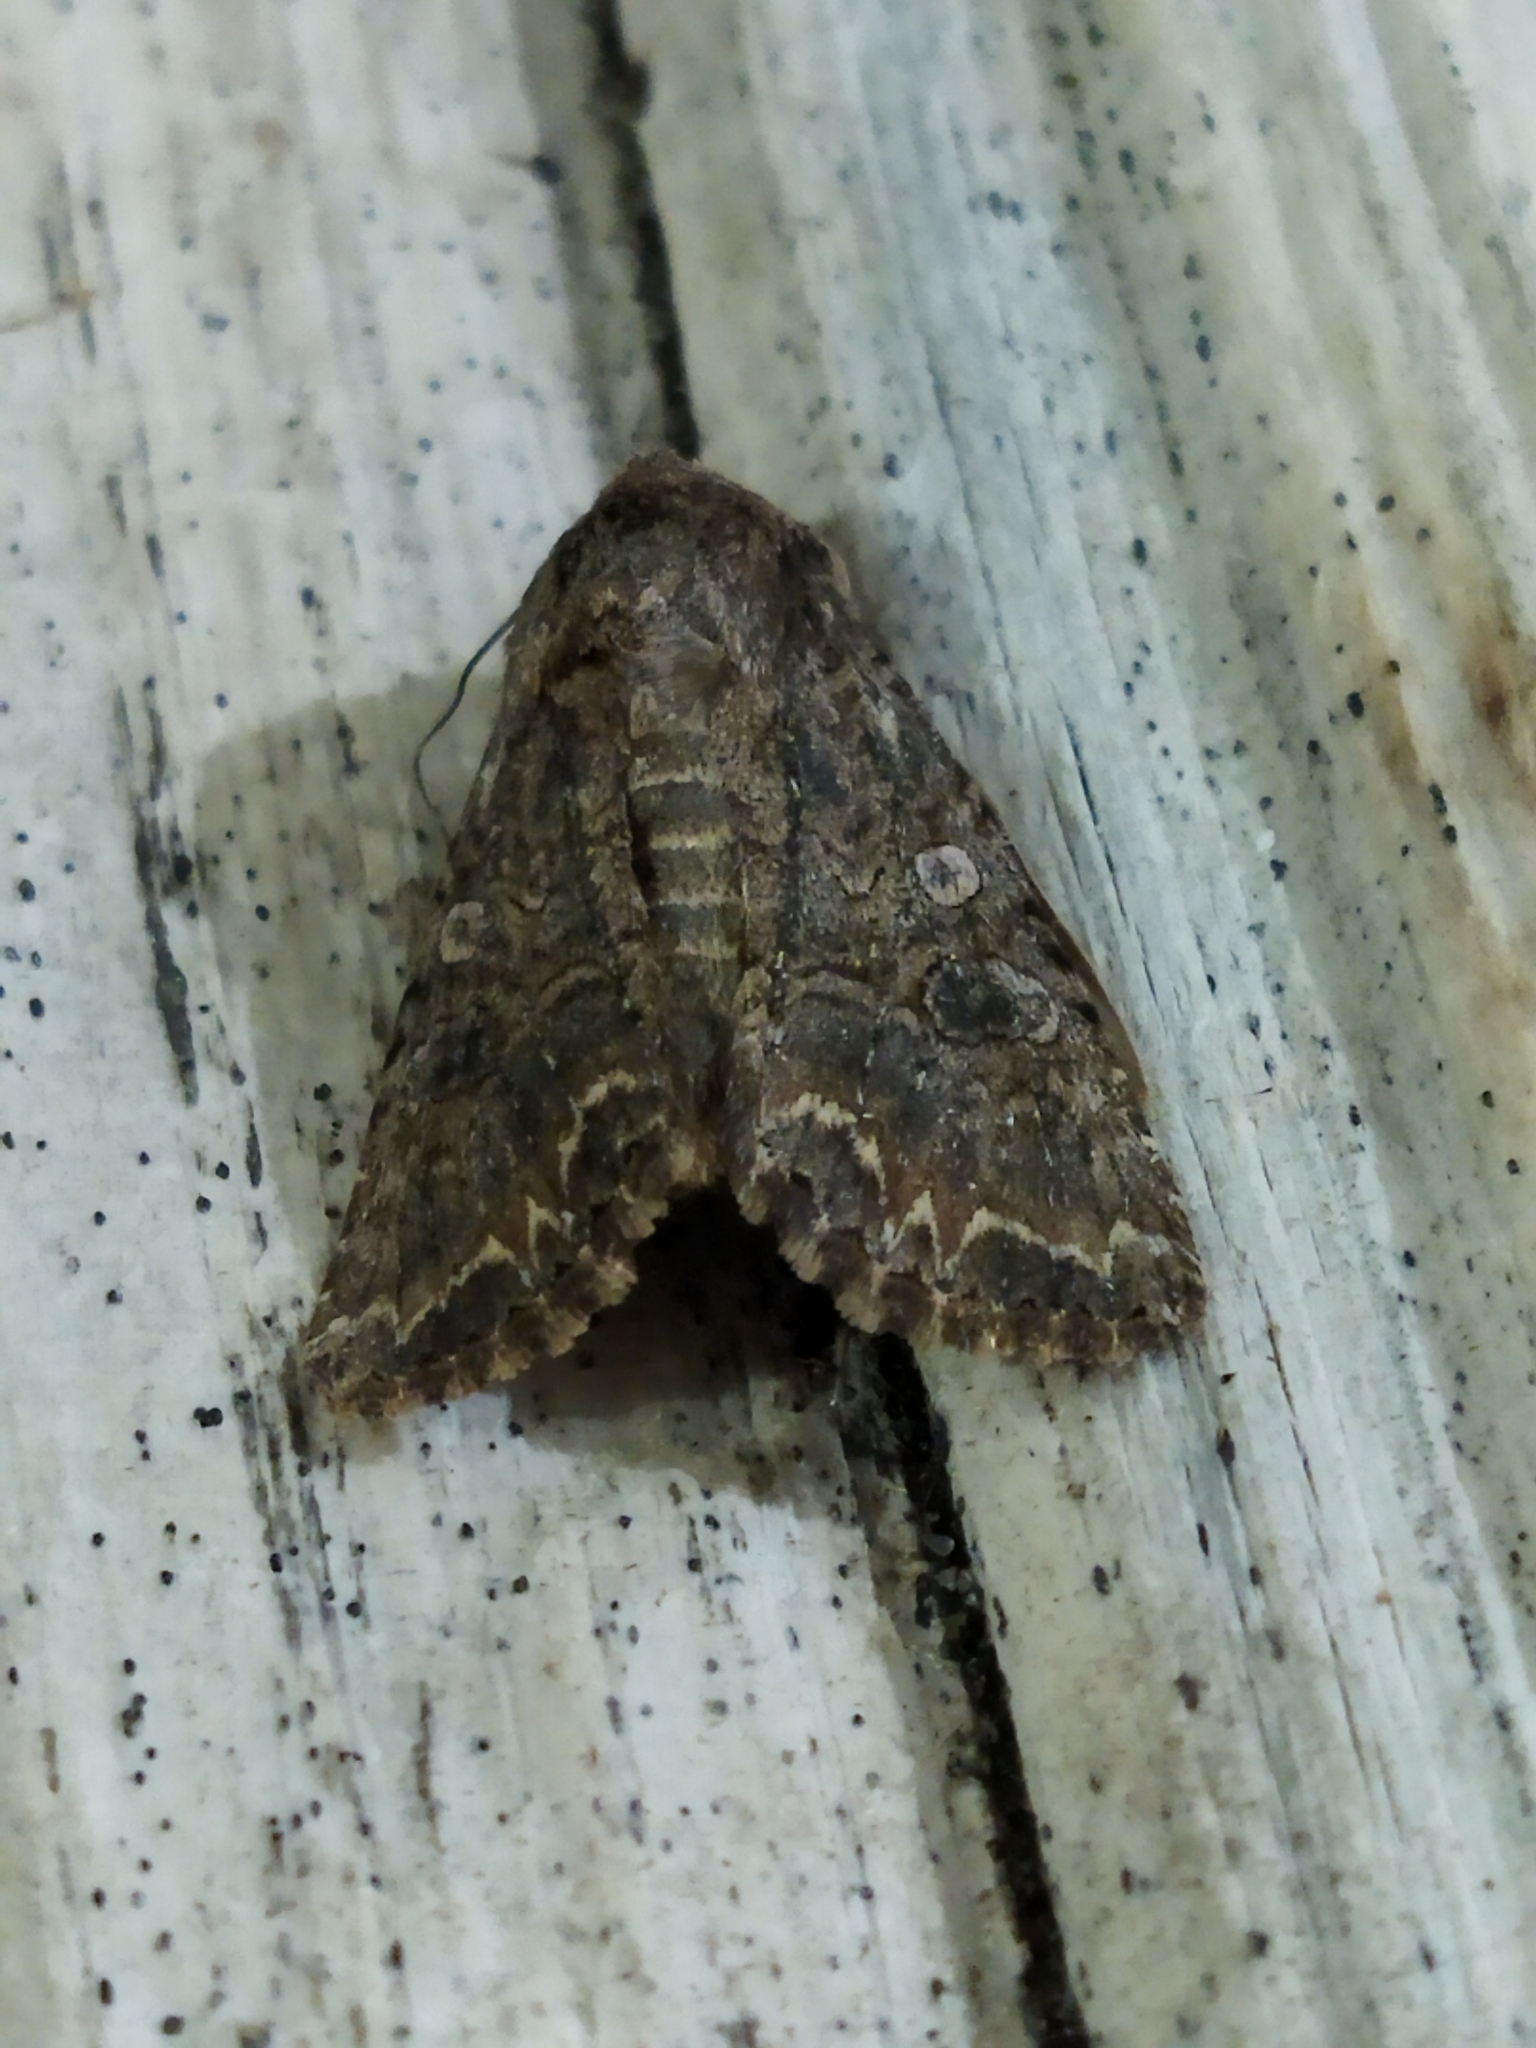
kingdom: Animalia
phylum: Arthropoda
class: Insecta
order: Lepidoptera
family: Noctuidae
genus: Anarta
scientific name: Anarta trifolii
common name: Clover cutworm moth
